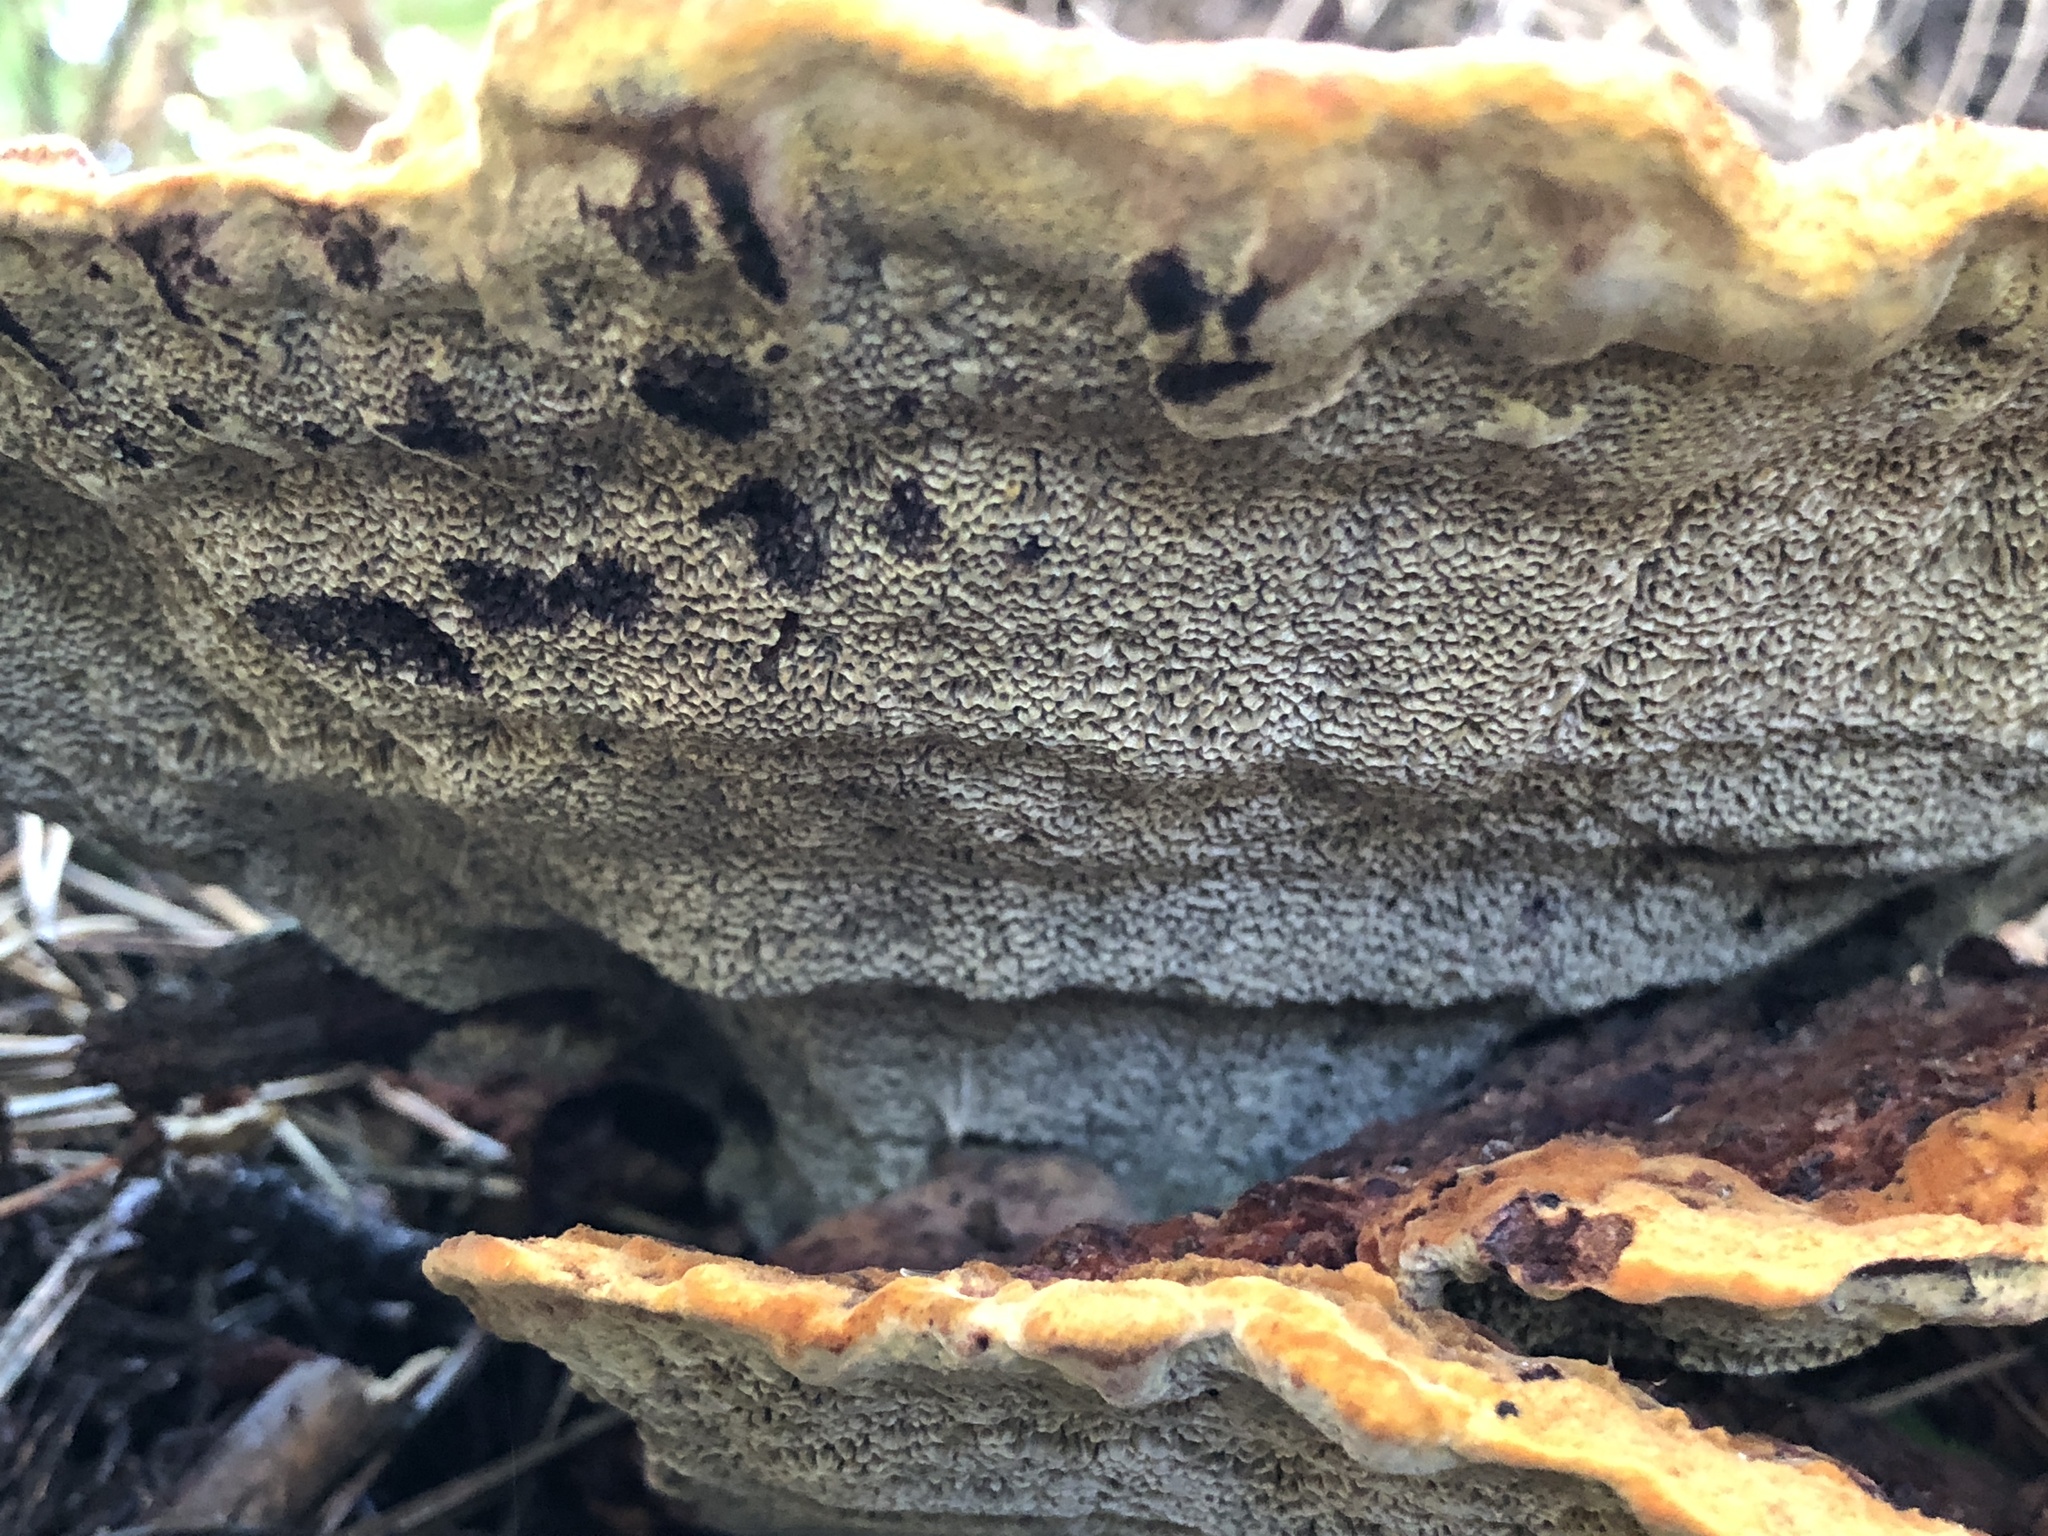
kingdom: Fungi
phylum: Basidiomycota
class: Agaricomycetes
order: Polyporales
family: Laetiporaceae
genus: Phaeolus
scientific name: Phaeolus schweinitzii
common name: Dyer's mazegill
